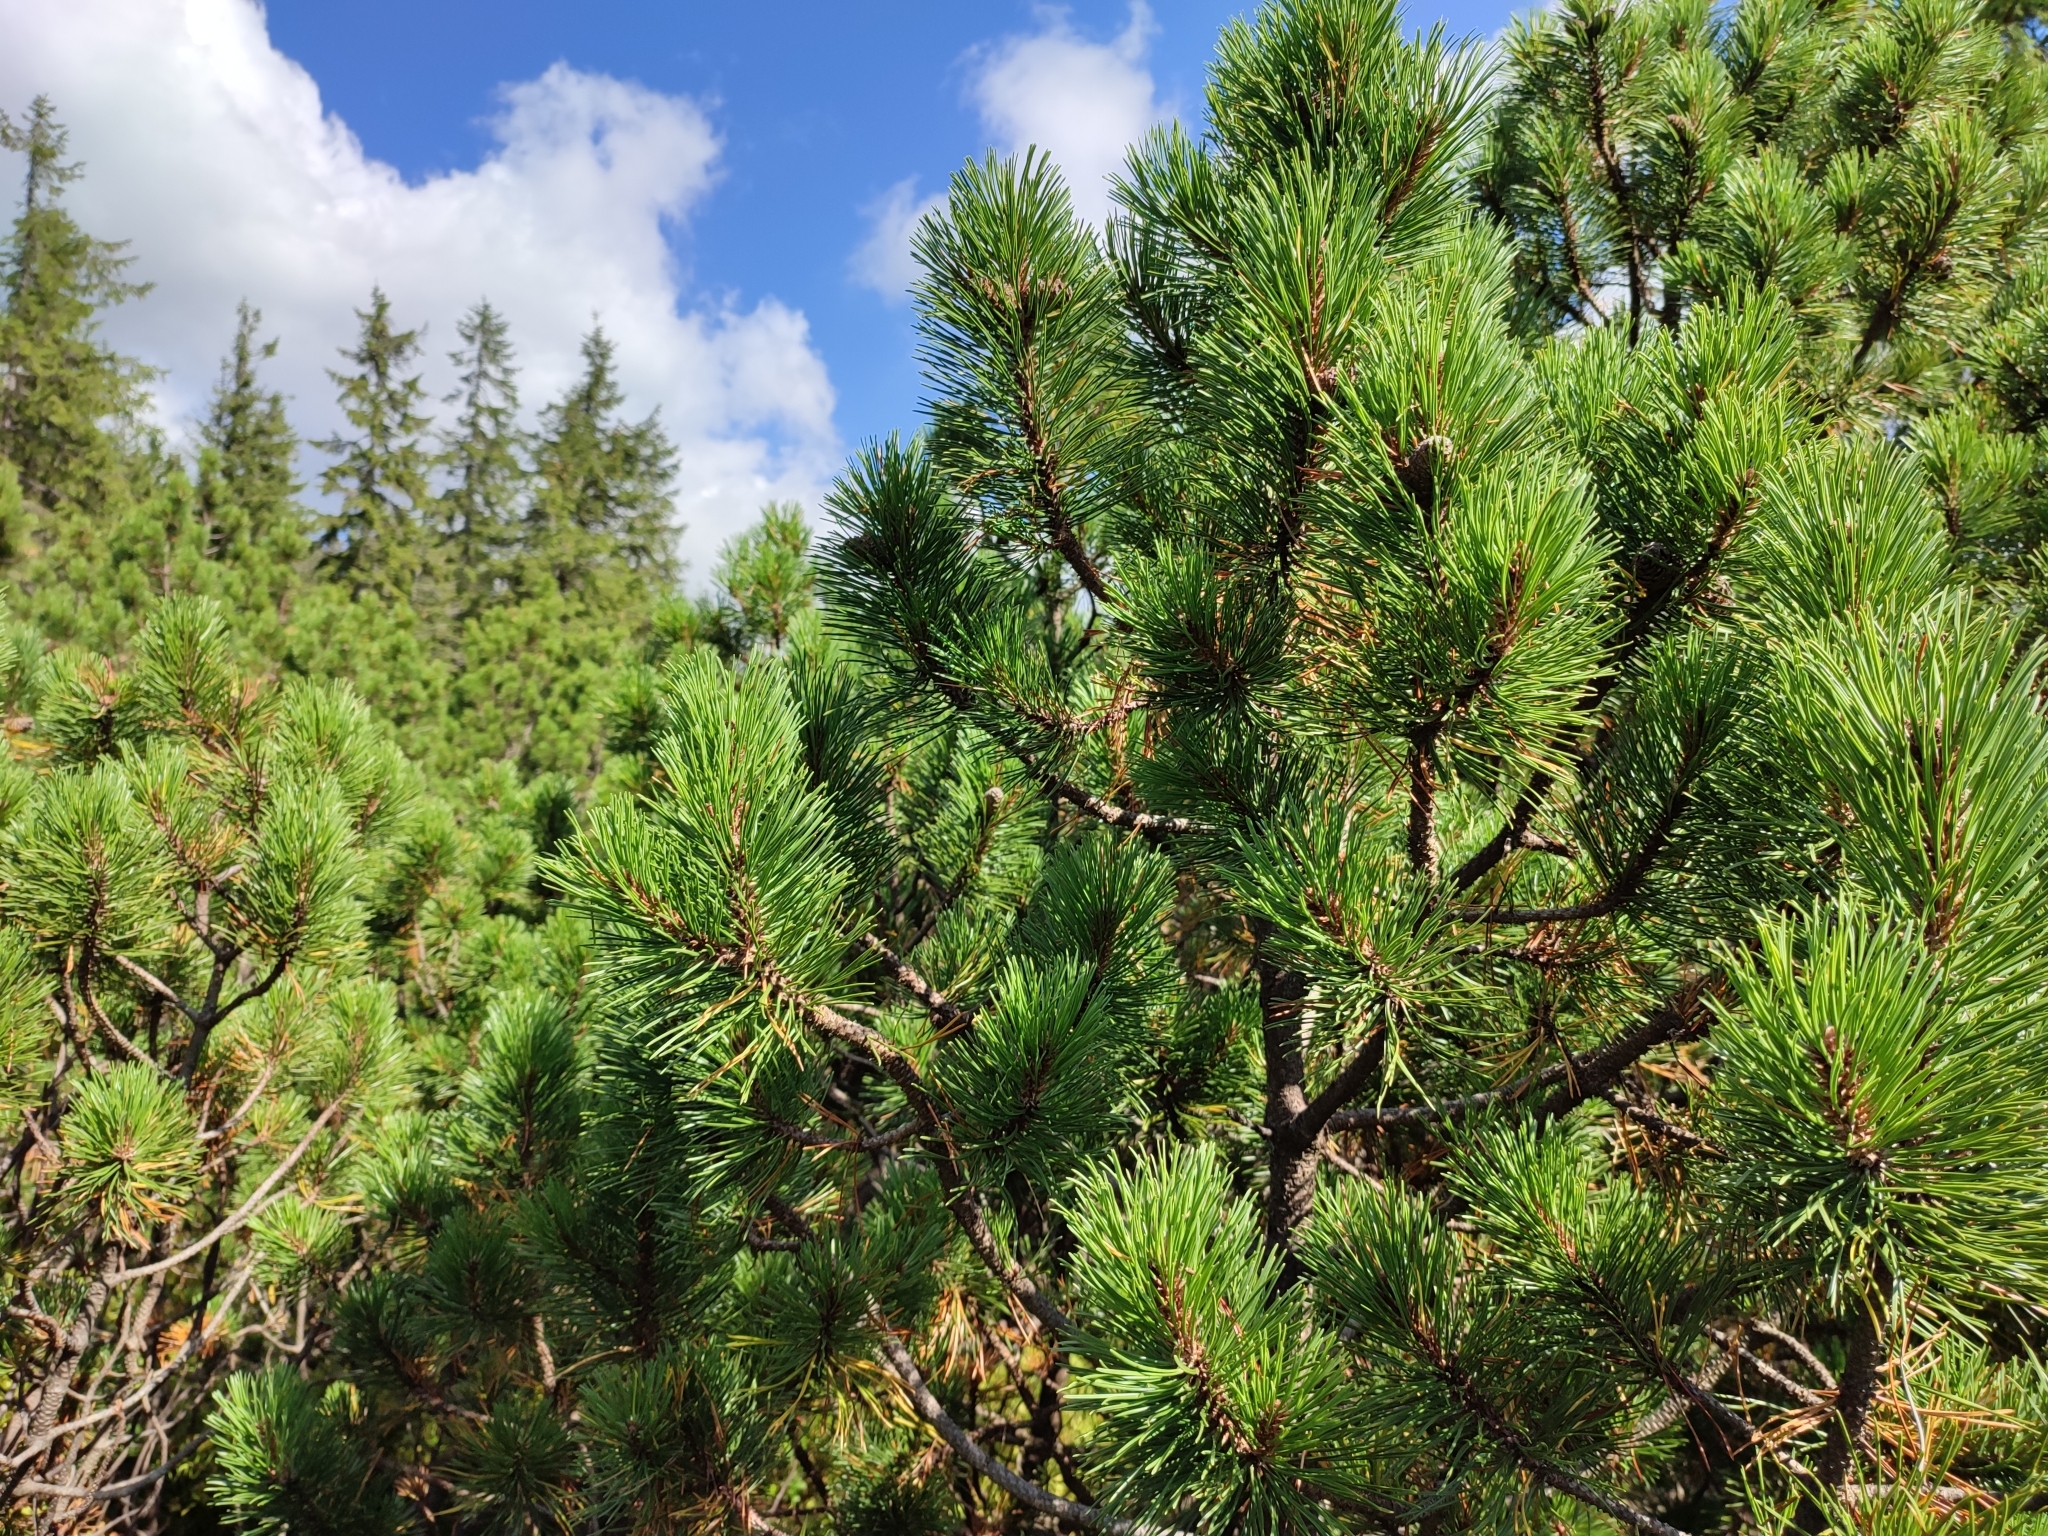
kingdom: Plantae
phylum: Tracheophyta
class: Pinopsida
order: Pinales
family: Pinaceae
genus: Pinus
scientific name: Pinus mugo
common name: Mugo pine
